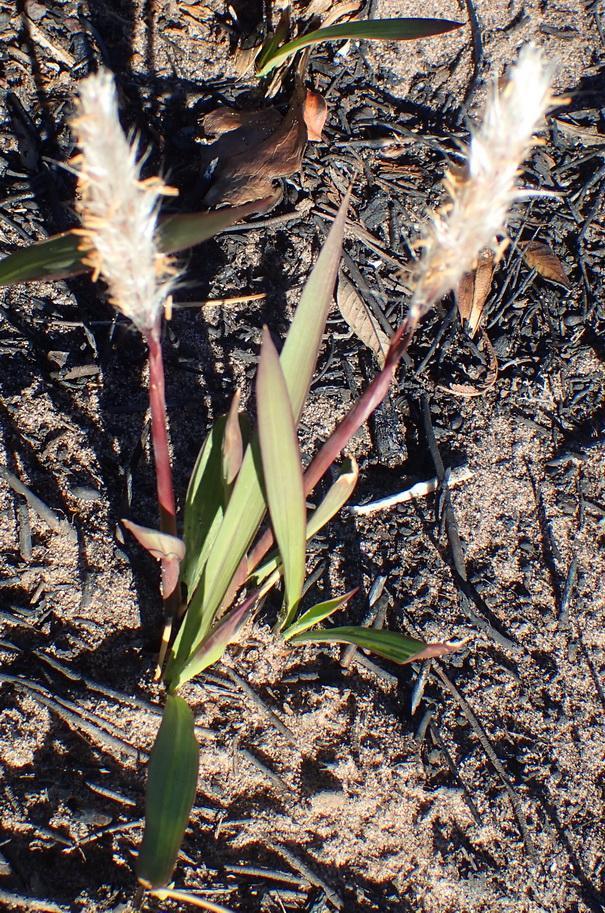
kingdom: Plantae
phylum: Tracheophyta
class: Liliopsida
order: Poales
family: Poaceae
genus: Imperata
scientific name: Imperata cylindrica
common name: Cogongrass
